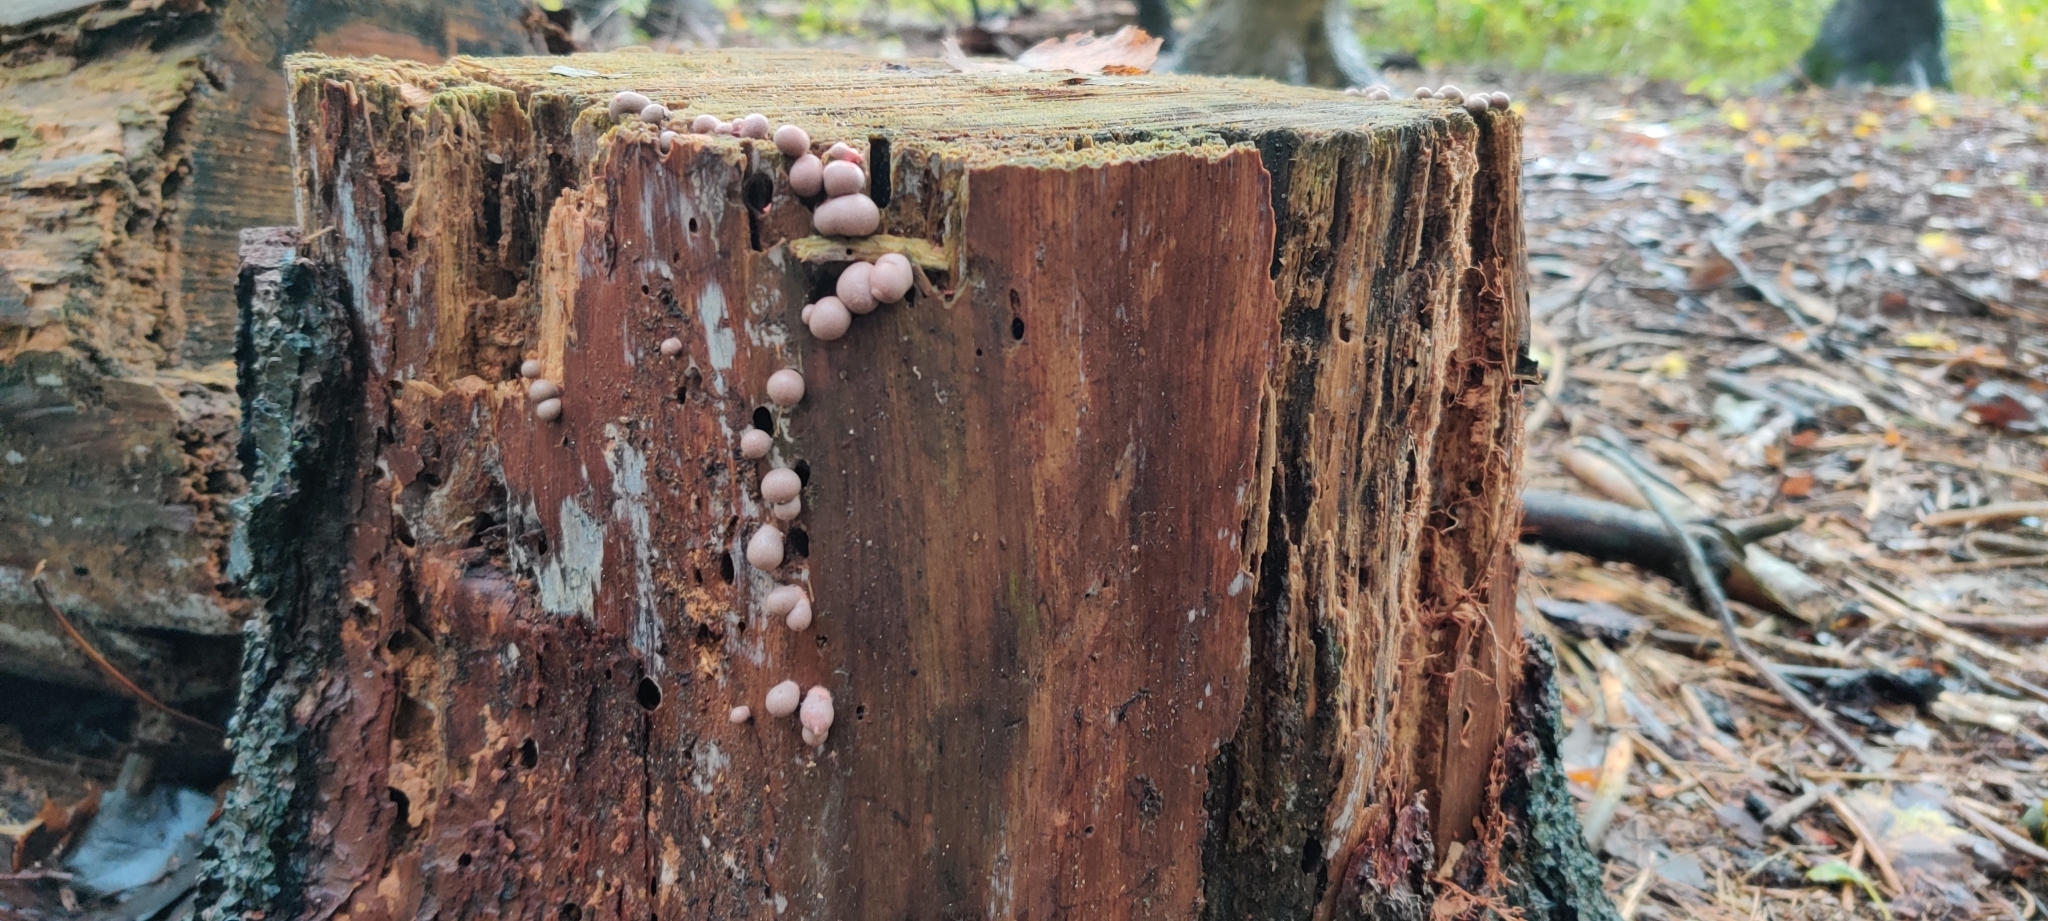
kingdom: Protozoa
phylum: Mycetozoa
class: Myxomycetes
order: Cribrariales
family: Tubiferaceae
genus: Lycogala
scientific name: Lycogala epidendrum
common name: Wolf's milk
